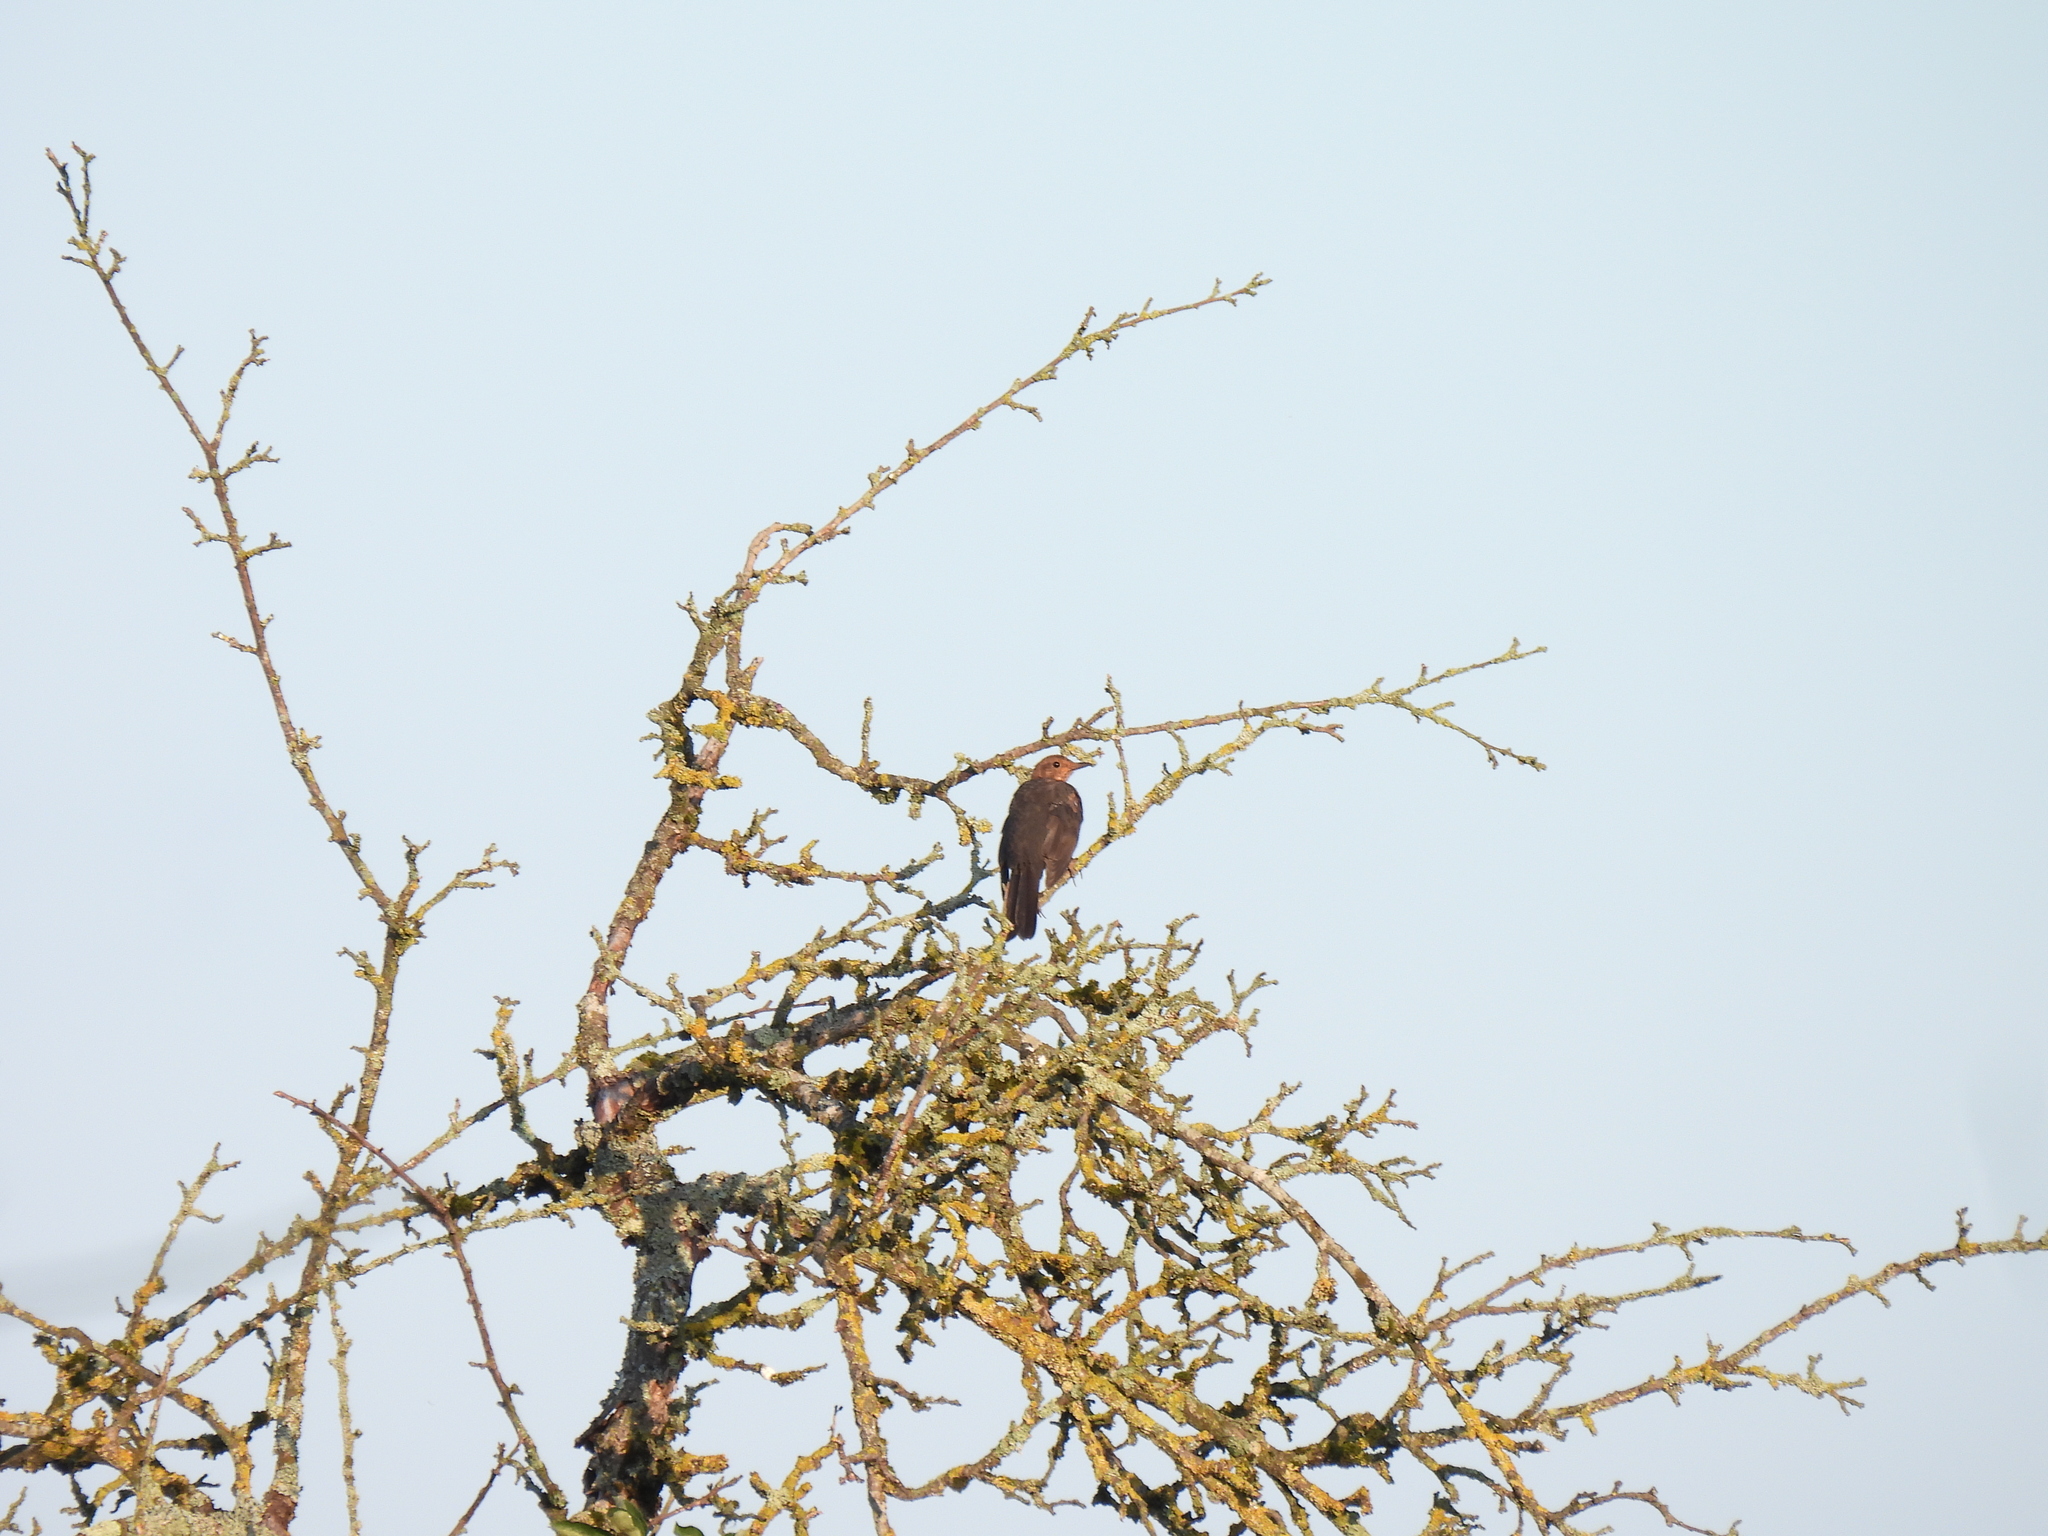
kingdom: Animalia
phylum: Chordata
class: Aves
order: Passeriformes
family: Turdidae
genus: Turdus
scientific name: Turdus merula
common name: Common blackbird
